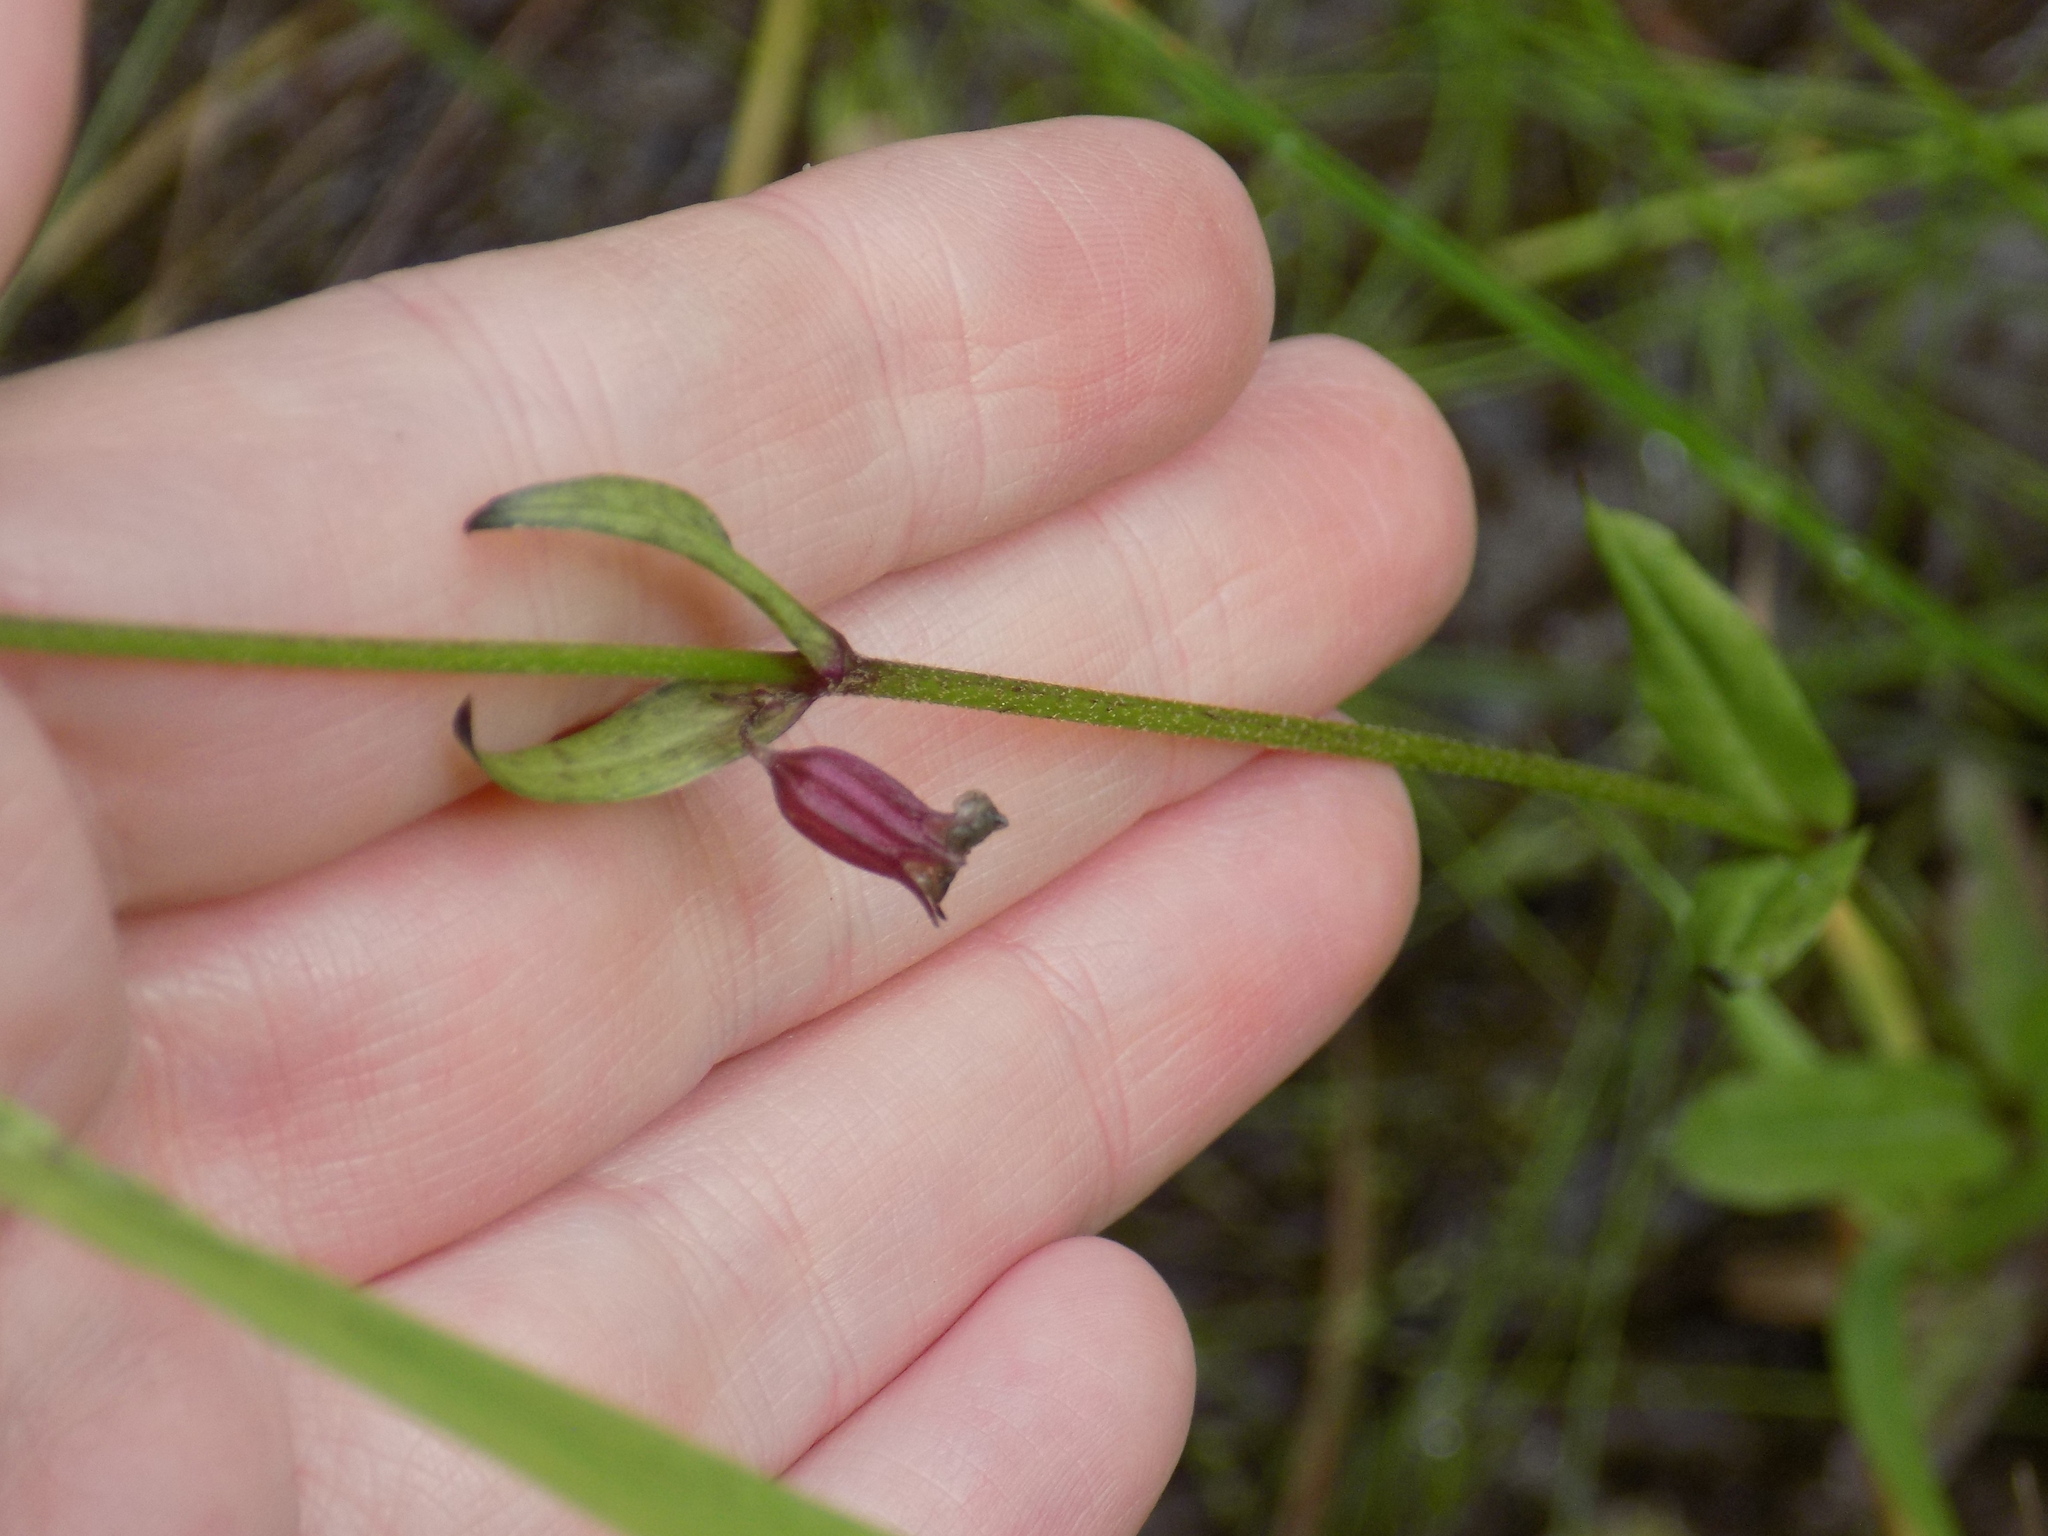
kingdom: Plantae
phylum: Tracheophyta
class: Magnoliopsida
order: Caryophyllales
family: Caryophyllaceae
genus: Silene
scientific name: Silene flos-cuculi
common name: Ragged-robin
